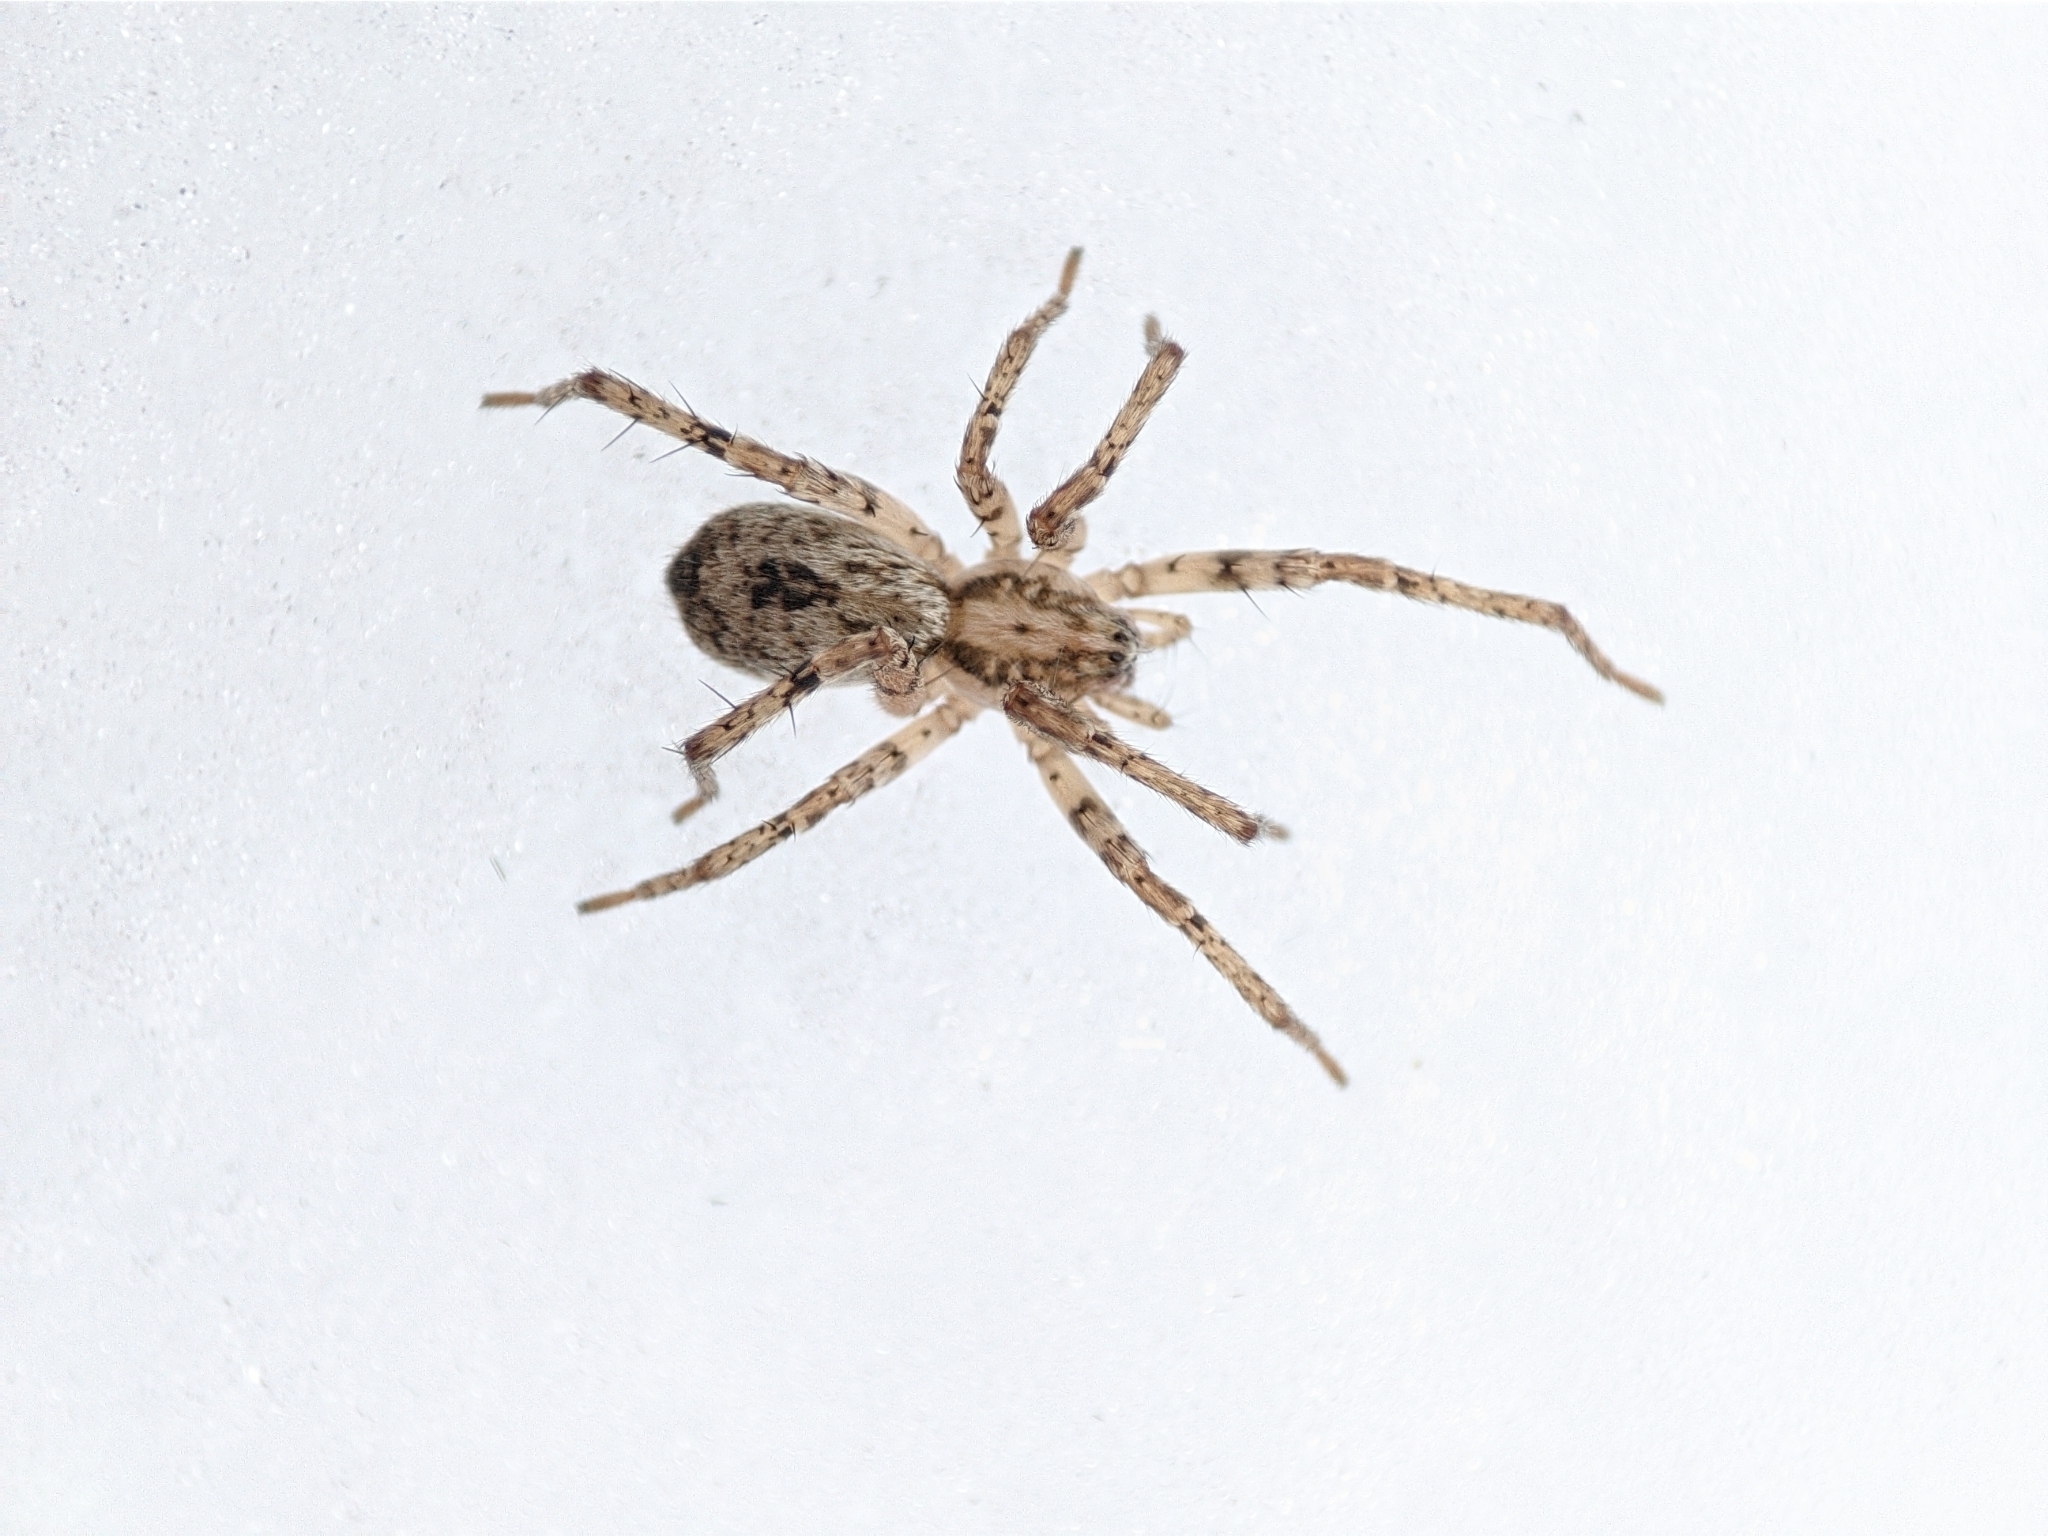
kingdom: Animalia
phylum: Arthropoda
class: Arachnida
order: Araneae
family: Anyphaenidae
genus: Anyphaena
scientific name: Anyphaena accentuata
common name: Buzzing spider
